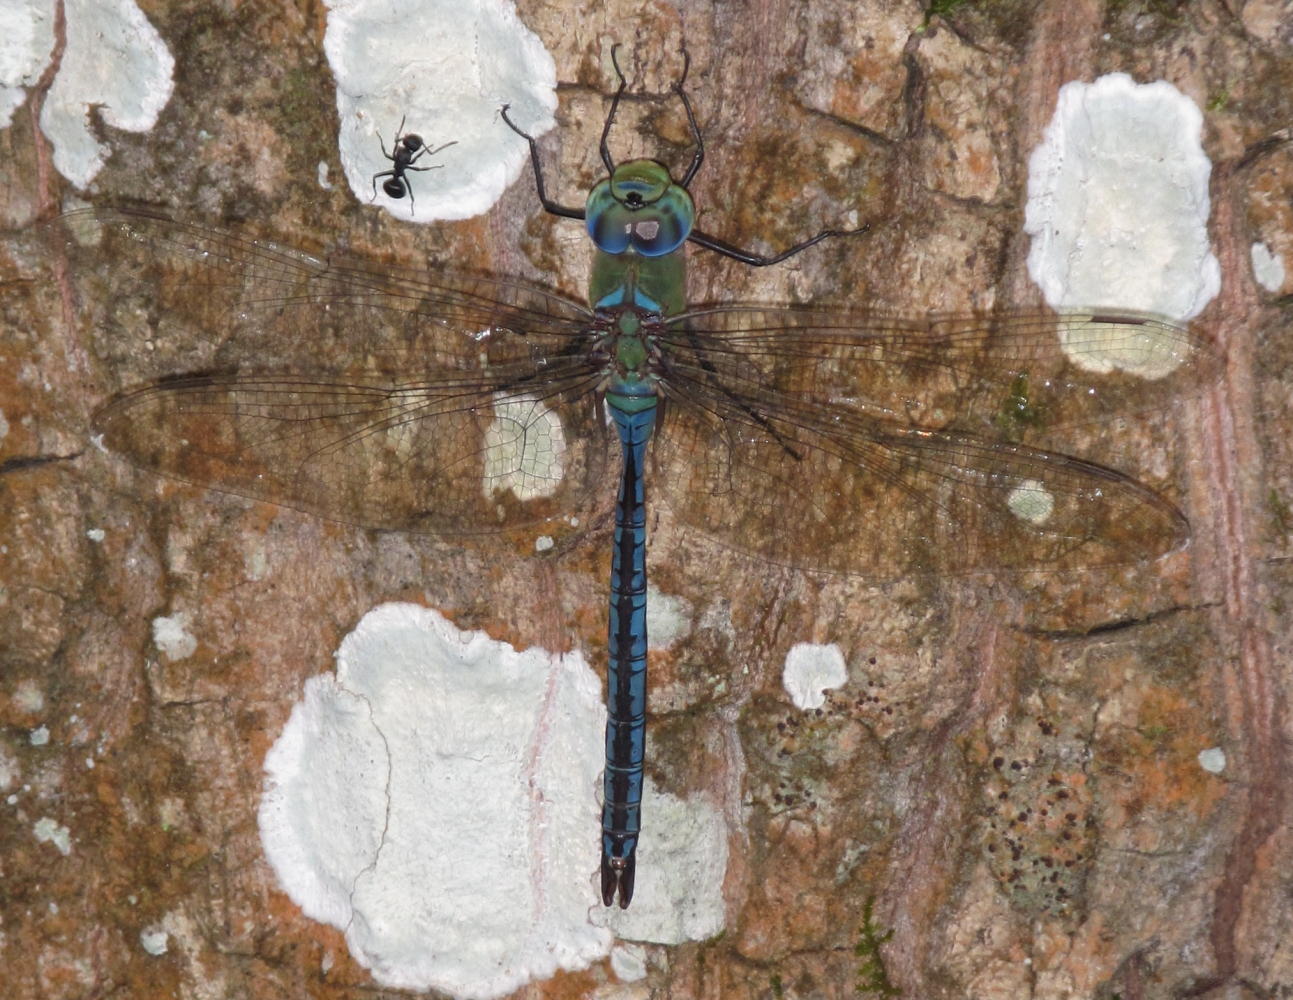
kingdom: Animalia
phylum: Arthropoda
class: Insecta
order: Odonata
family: Aeshnidae
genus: Anax
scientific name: Anax imperator
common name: Emperor dragonfly
